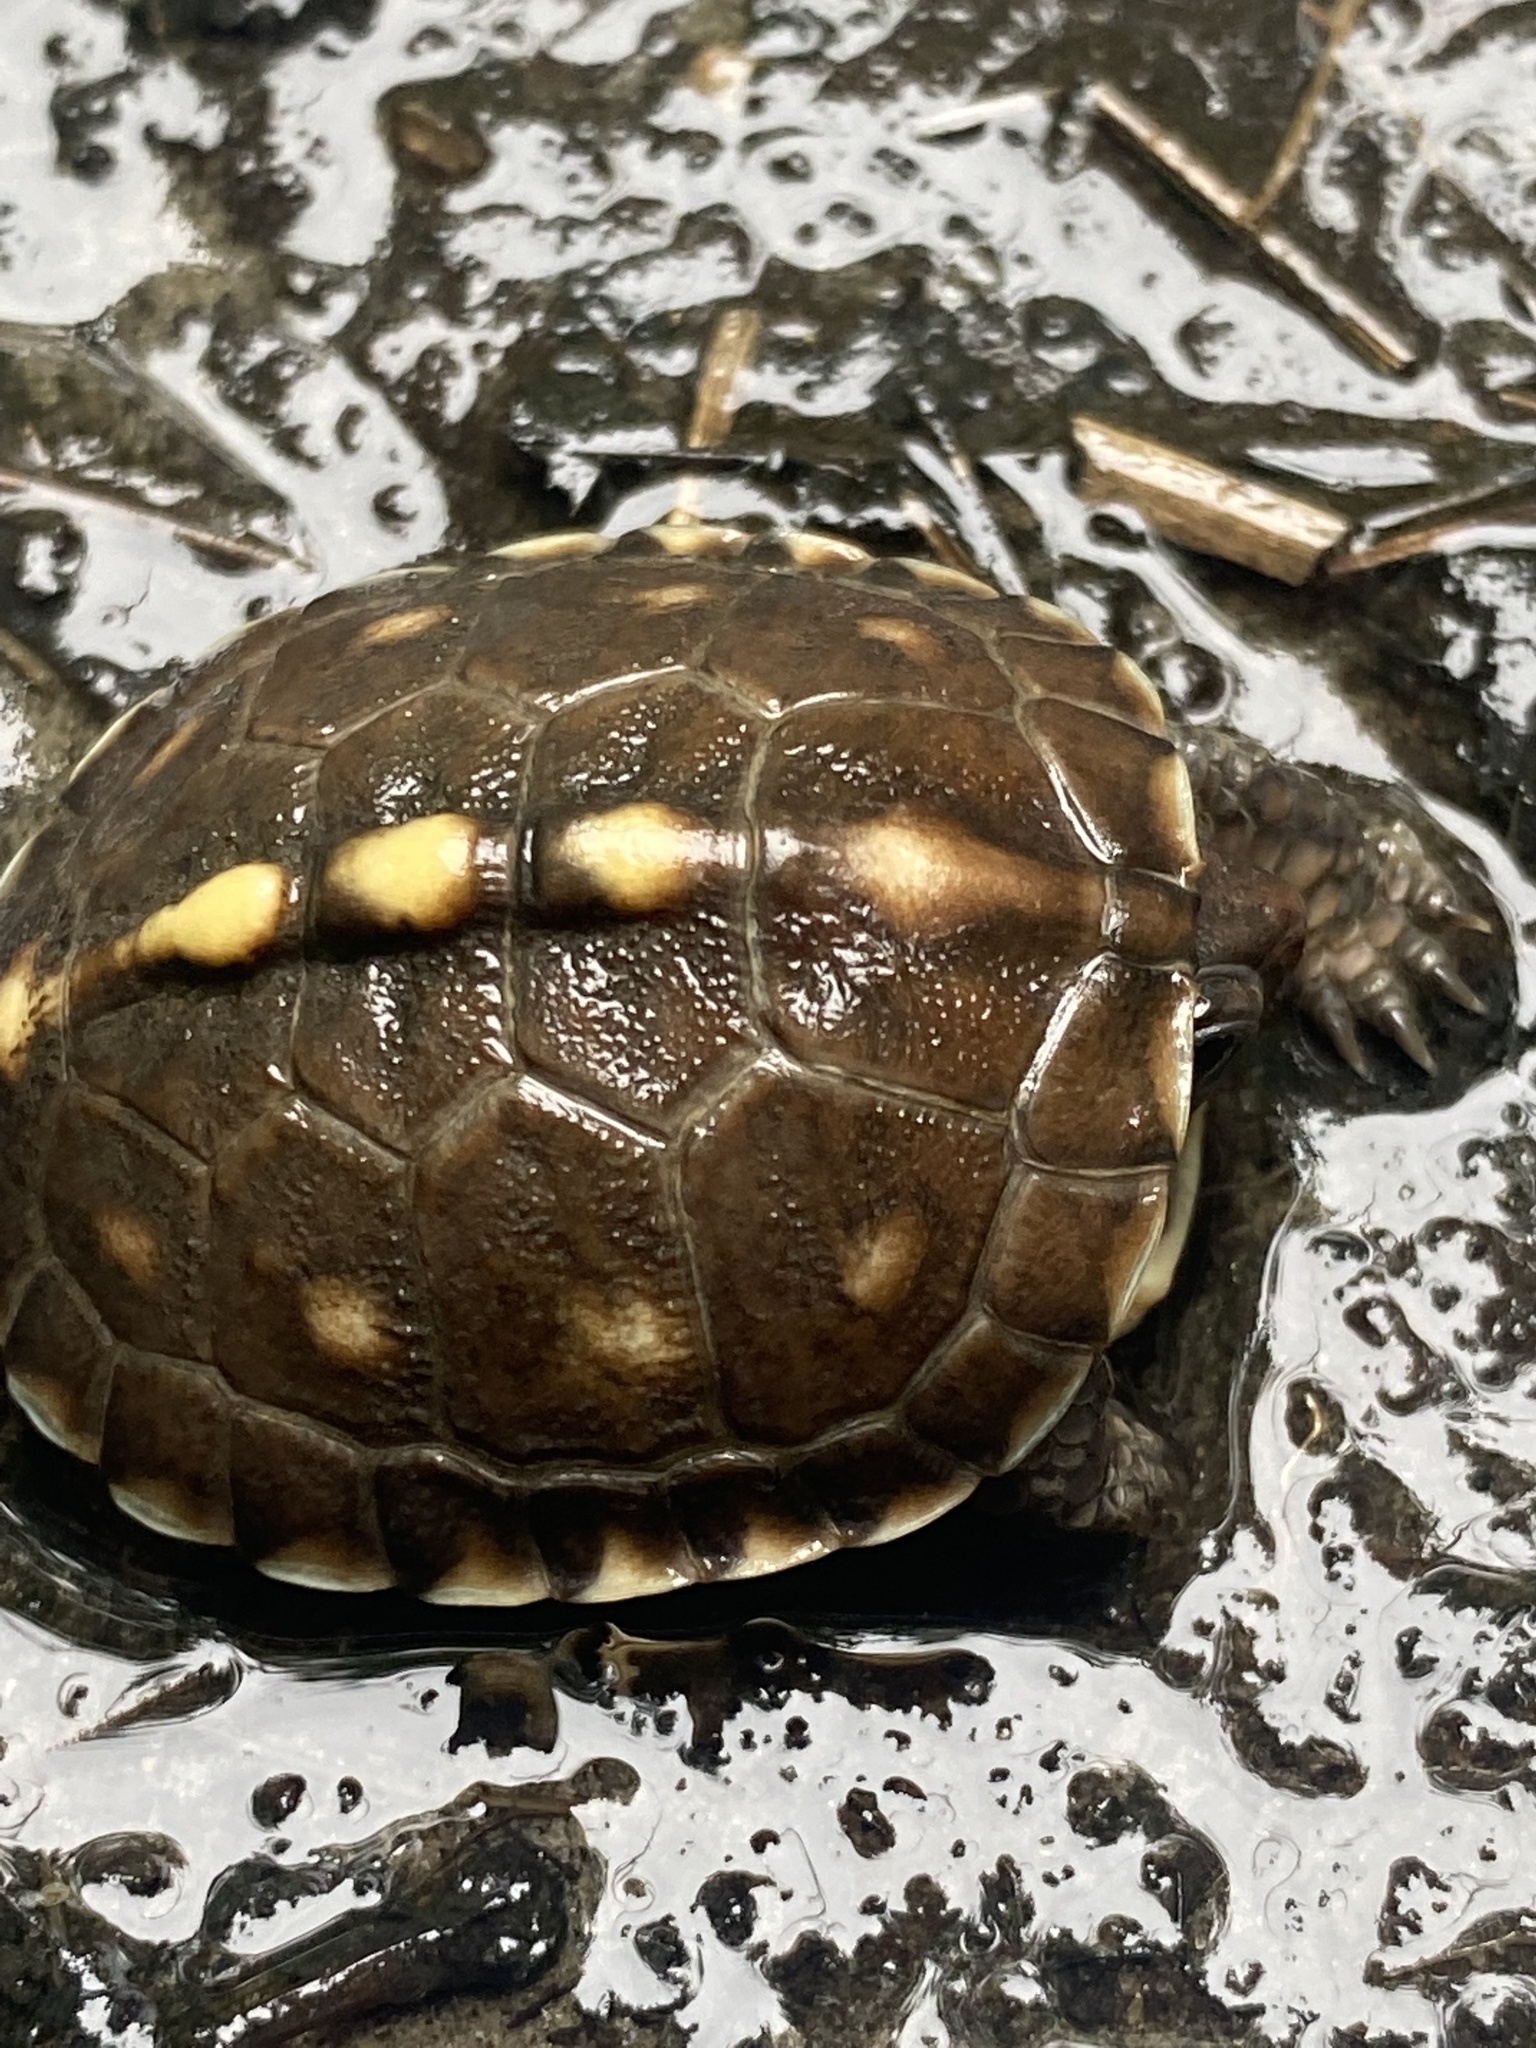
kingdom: Animalia
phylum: Chordata
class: Testudines
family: Emydidae
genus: Terrapene
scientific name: Terrapene carolina
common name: Common box turtle
